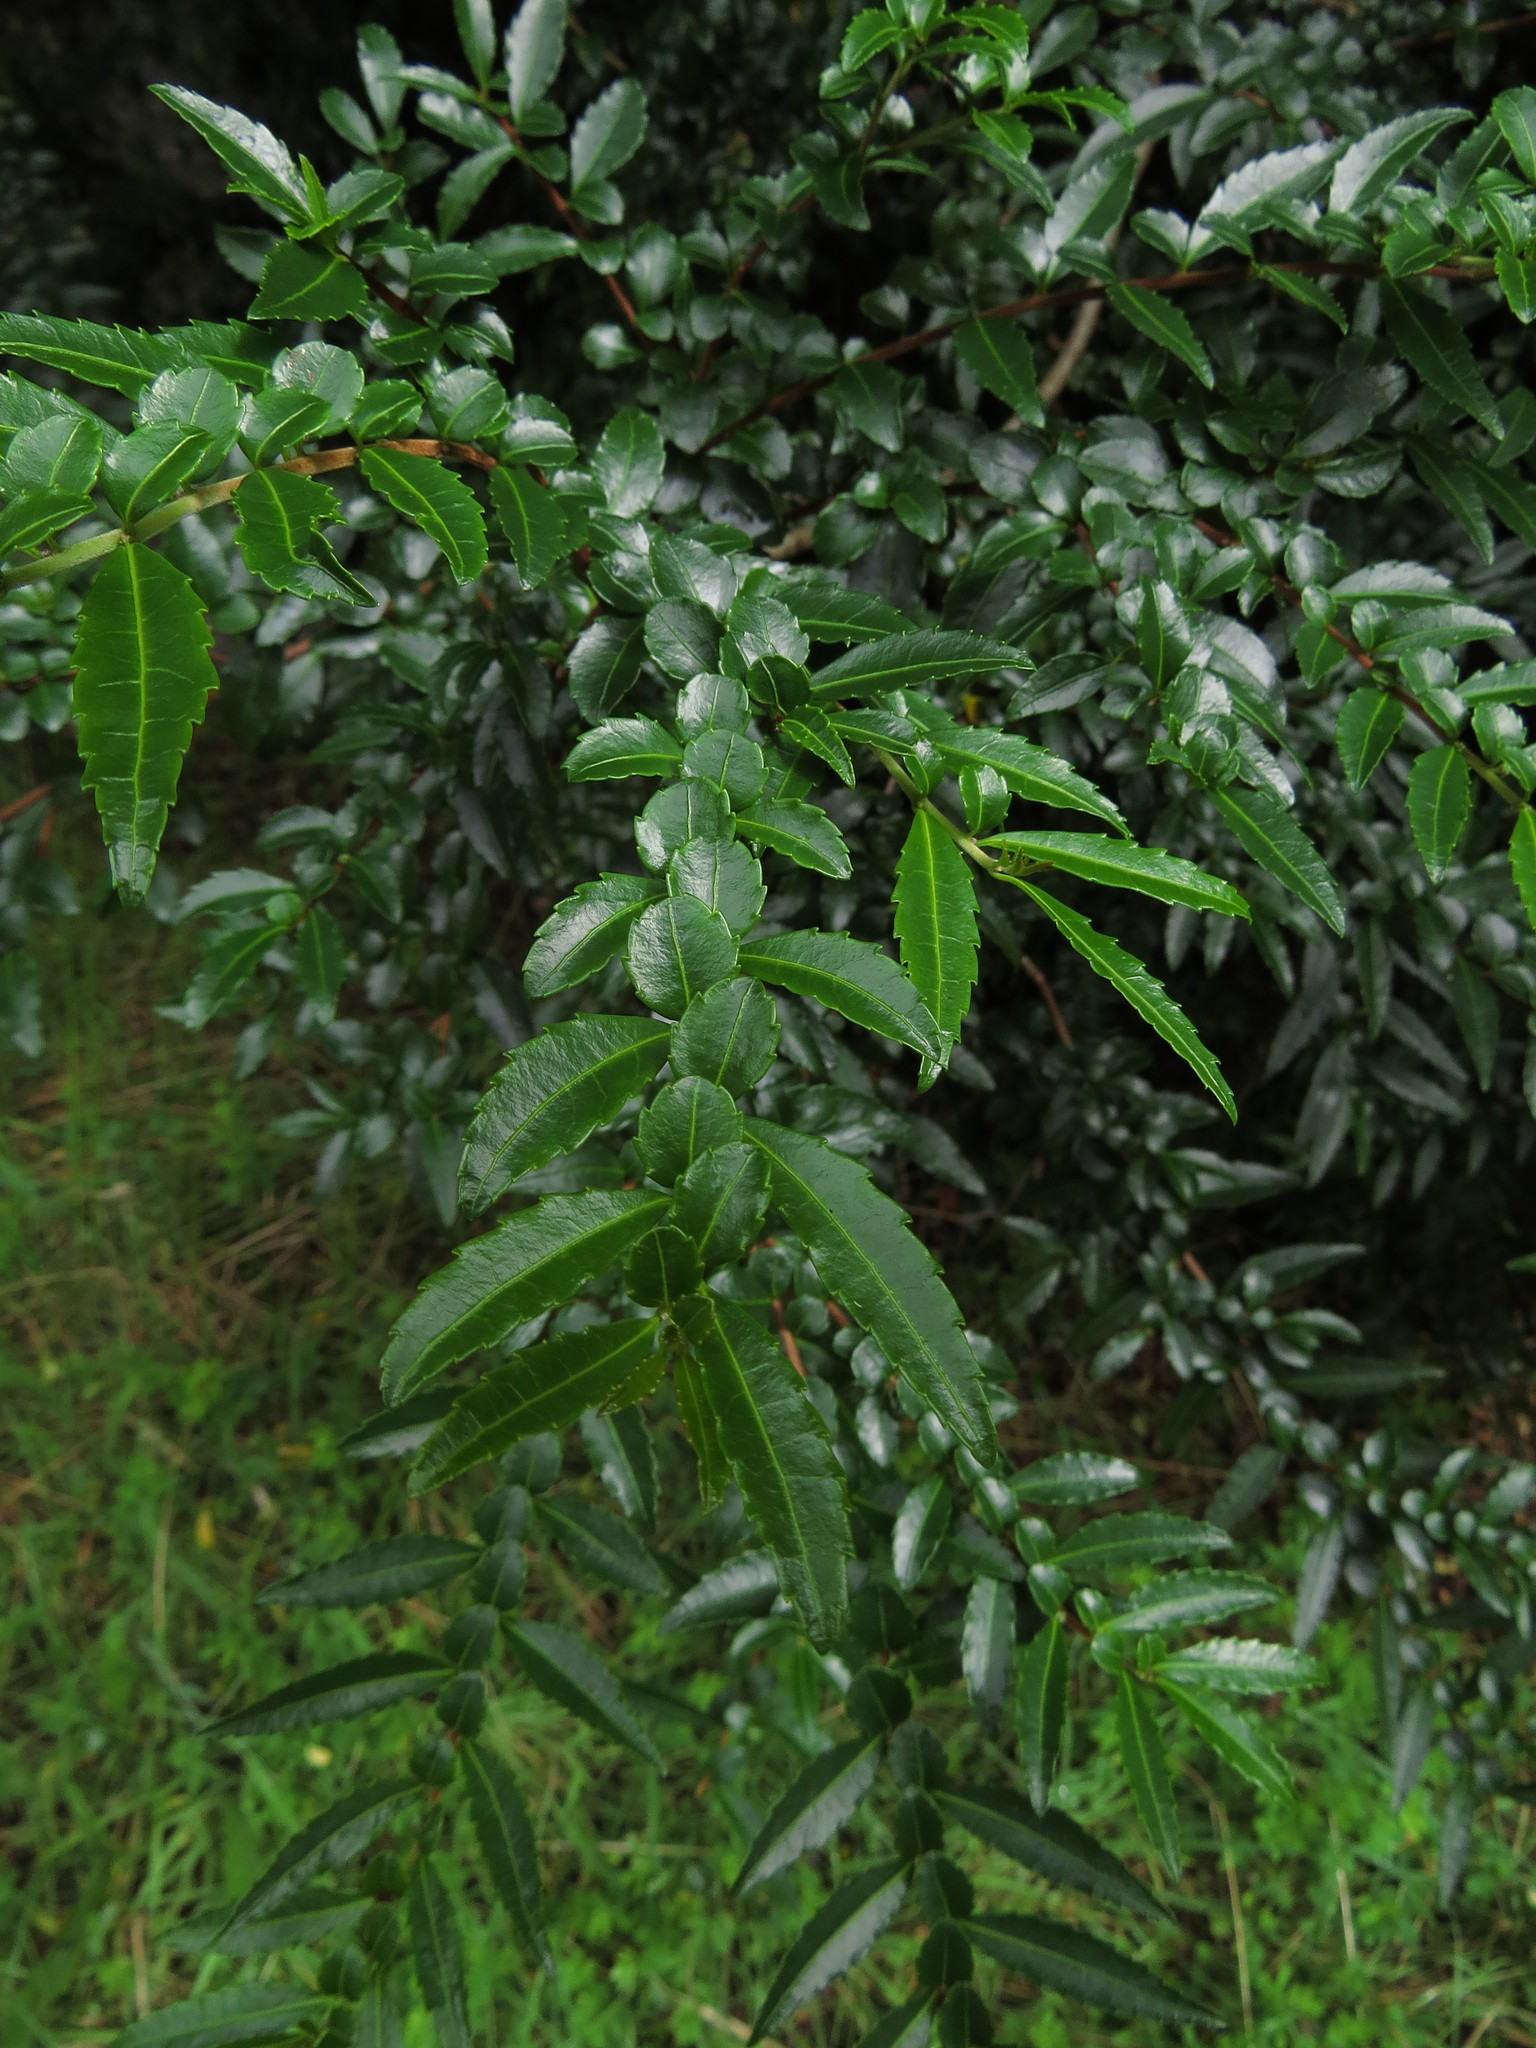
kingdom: Plantae
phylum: Tracheophyta
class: Magnoliopsida
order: Malpighiales
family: Salicaceae
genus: Azara
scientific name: Azara lanceolata
